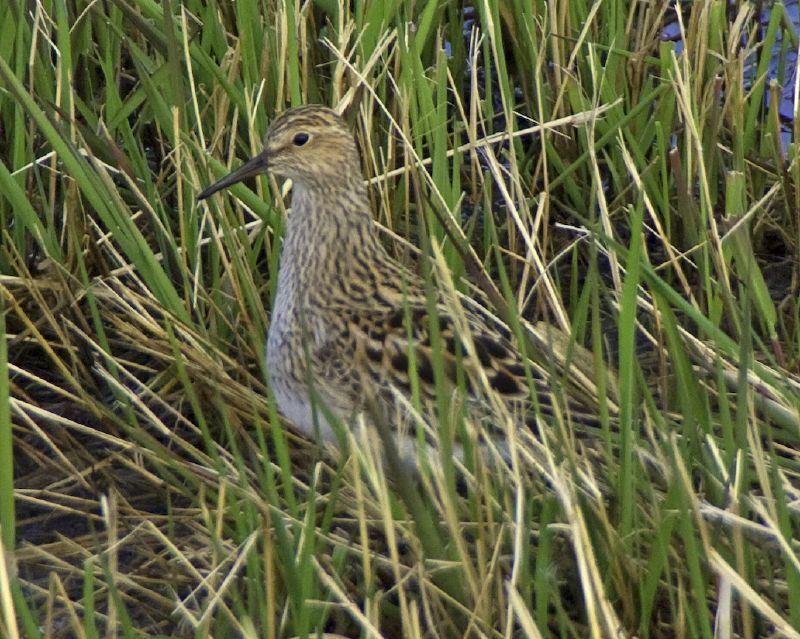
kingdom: Animalia
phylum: Chordata
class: Aves
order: Charadriiformes
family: Scolopacidae
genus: Calidris
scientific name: Calidris melanotos
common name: Pectoral sandpiper
